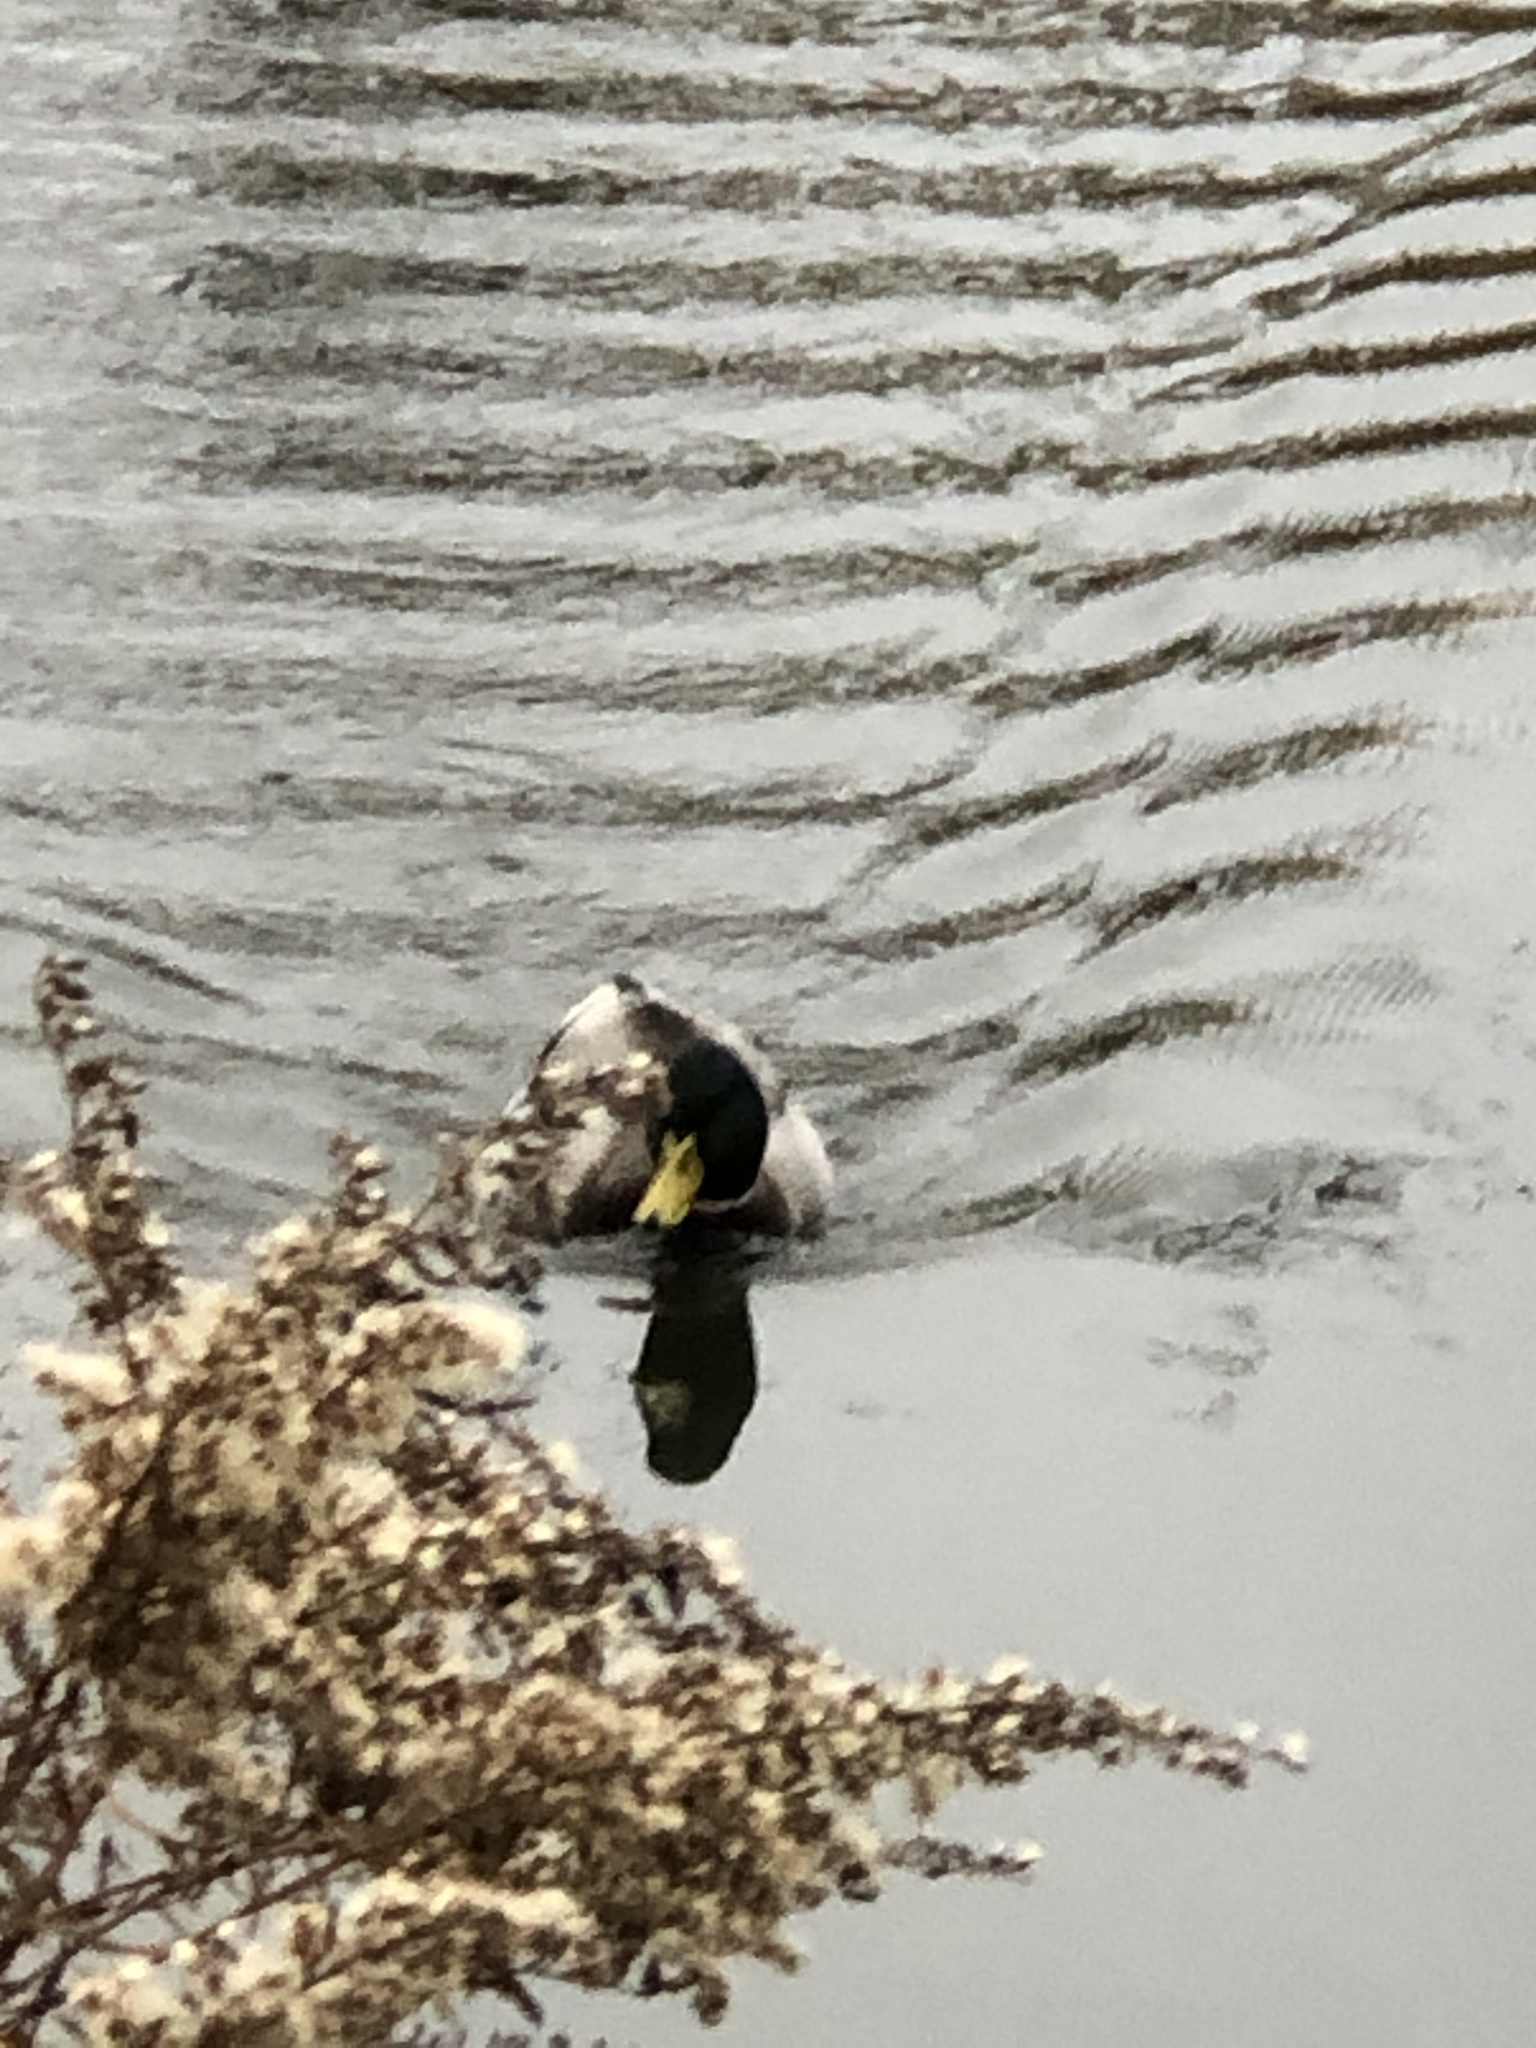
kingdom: Animalia
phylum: Chordata
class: Aves
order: Anseriformes
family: Anatidae
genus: Anas
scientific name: Anas platyrhynchos
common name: Mallard
